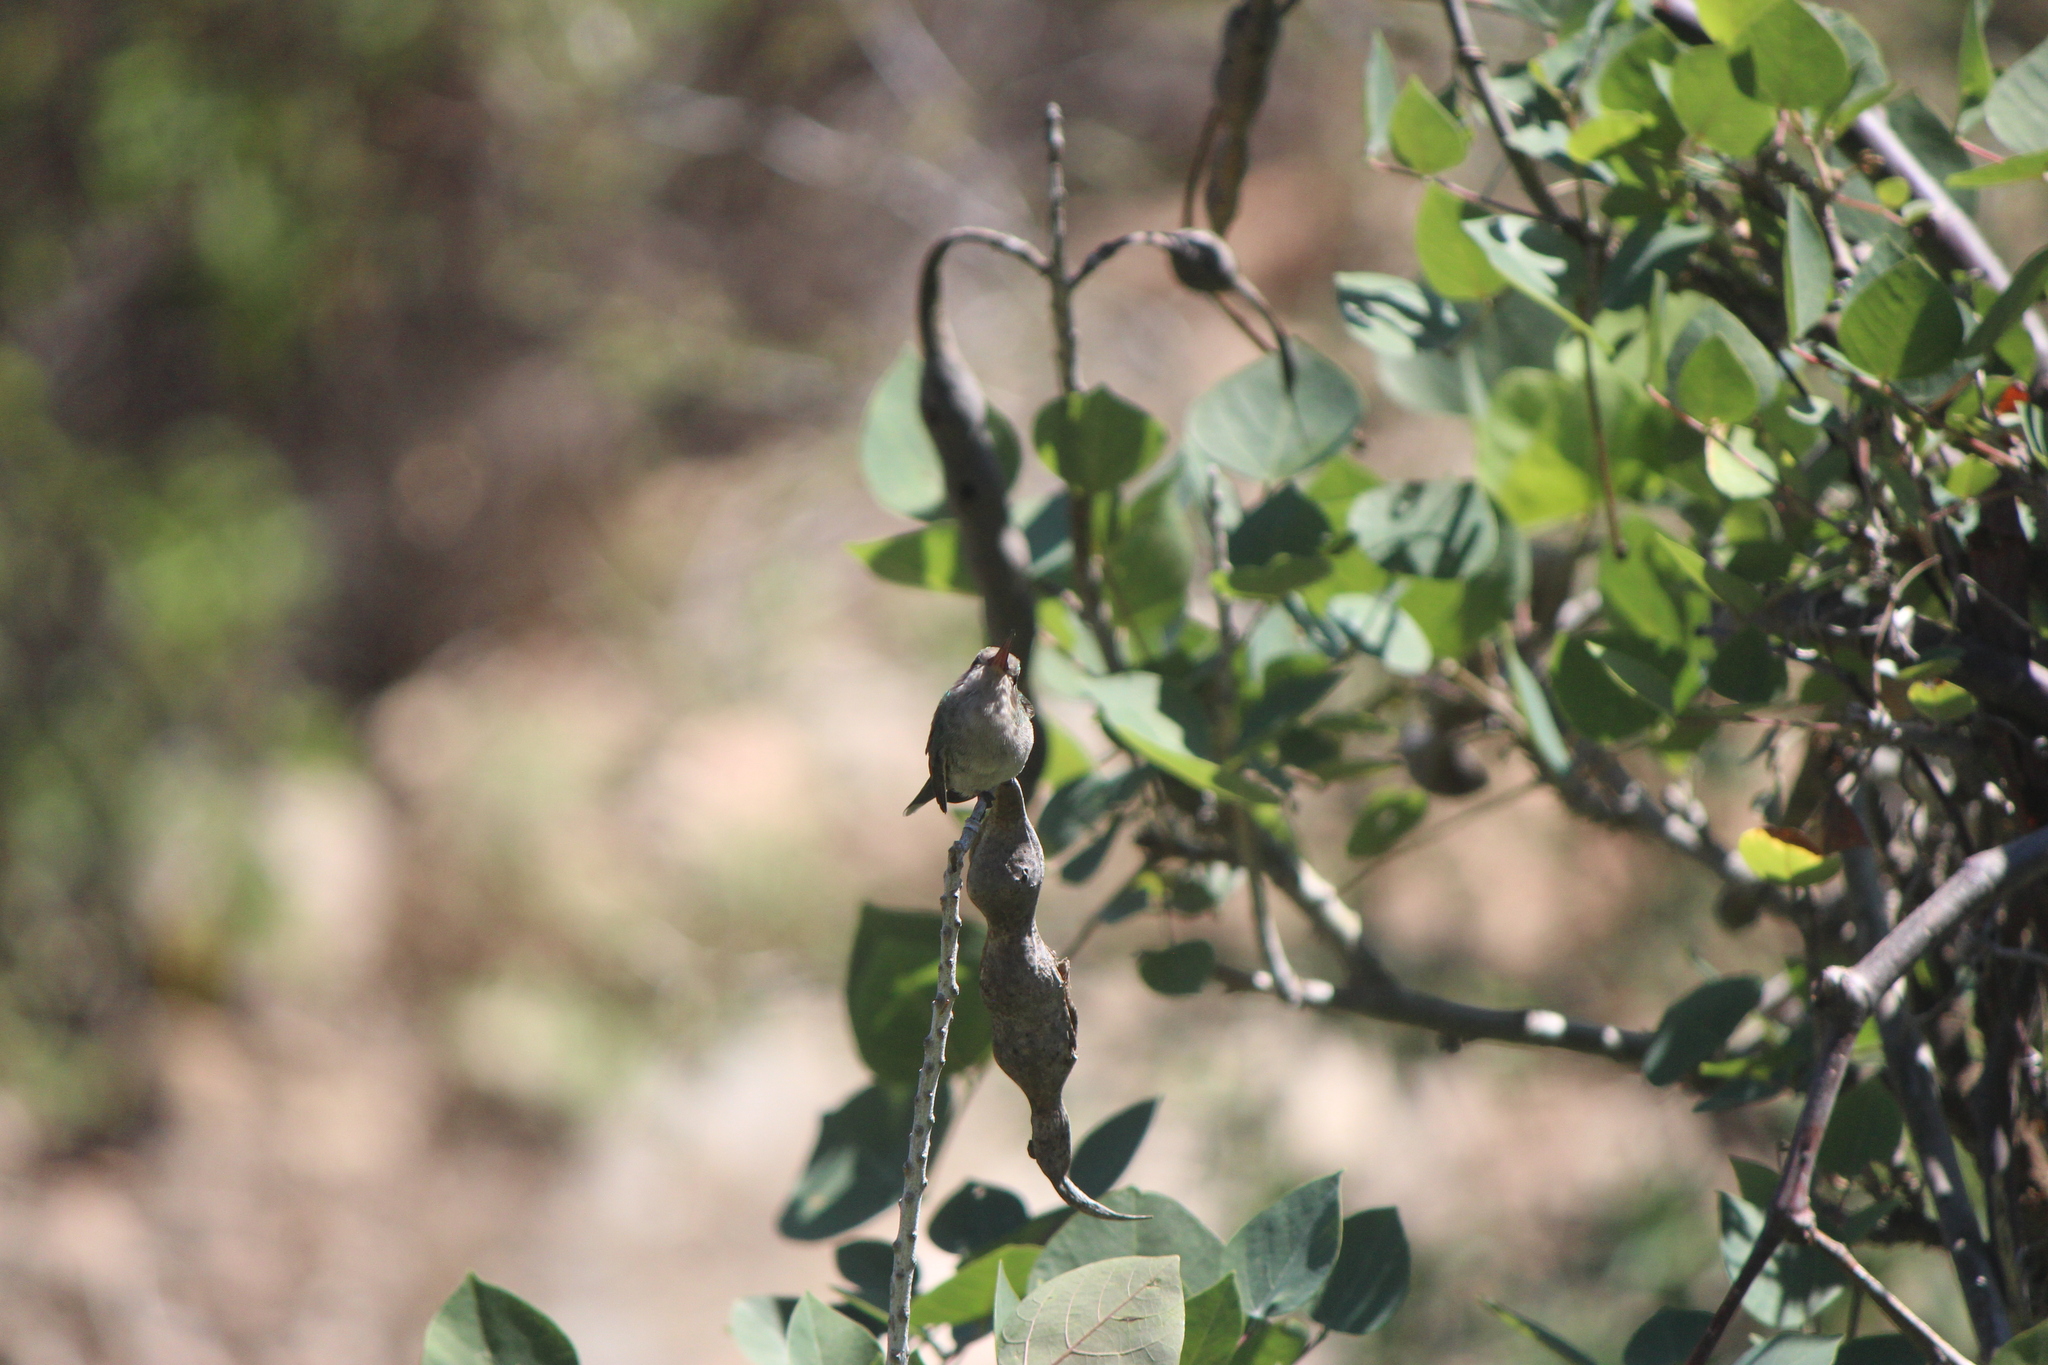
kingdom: Animalia
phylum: Chordata
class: Aves
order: Apodiformes
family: Trochilidae
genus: Cynanthus
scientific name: Cynanthus latirostris
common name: Broad-billed hummingbird
